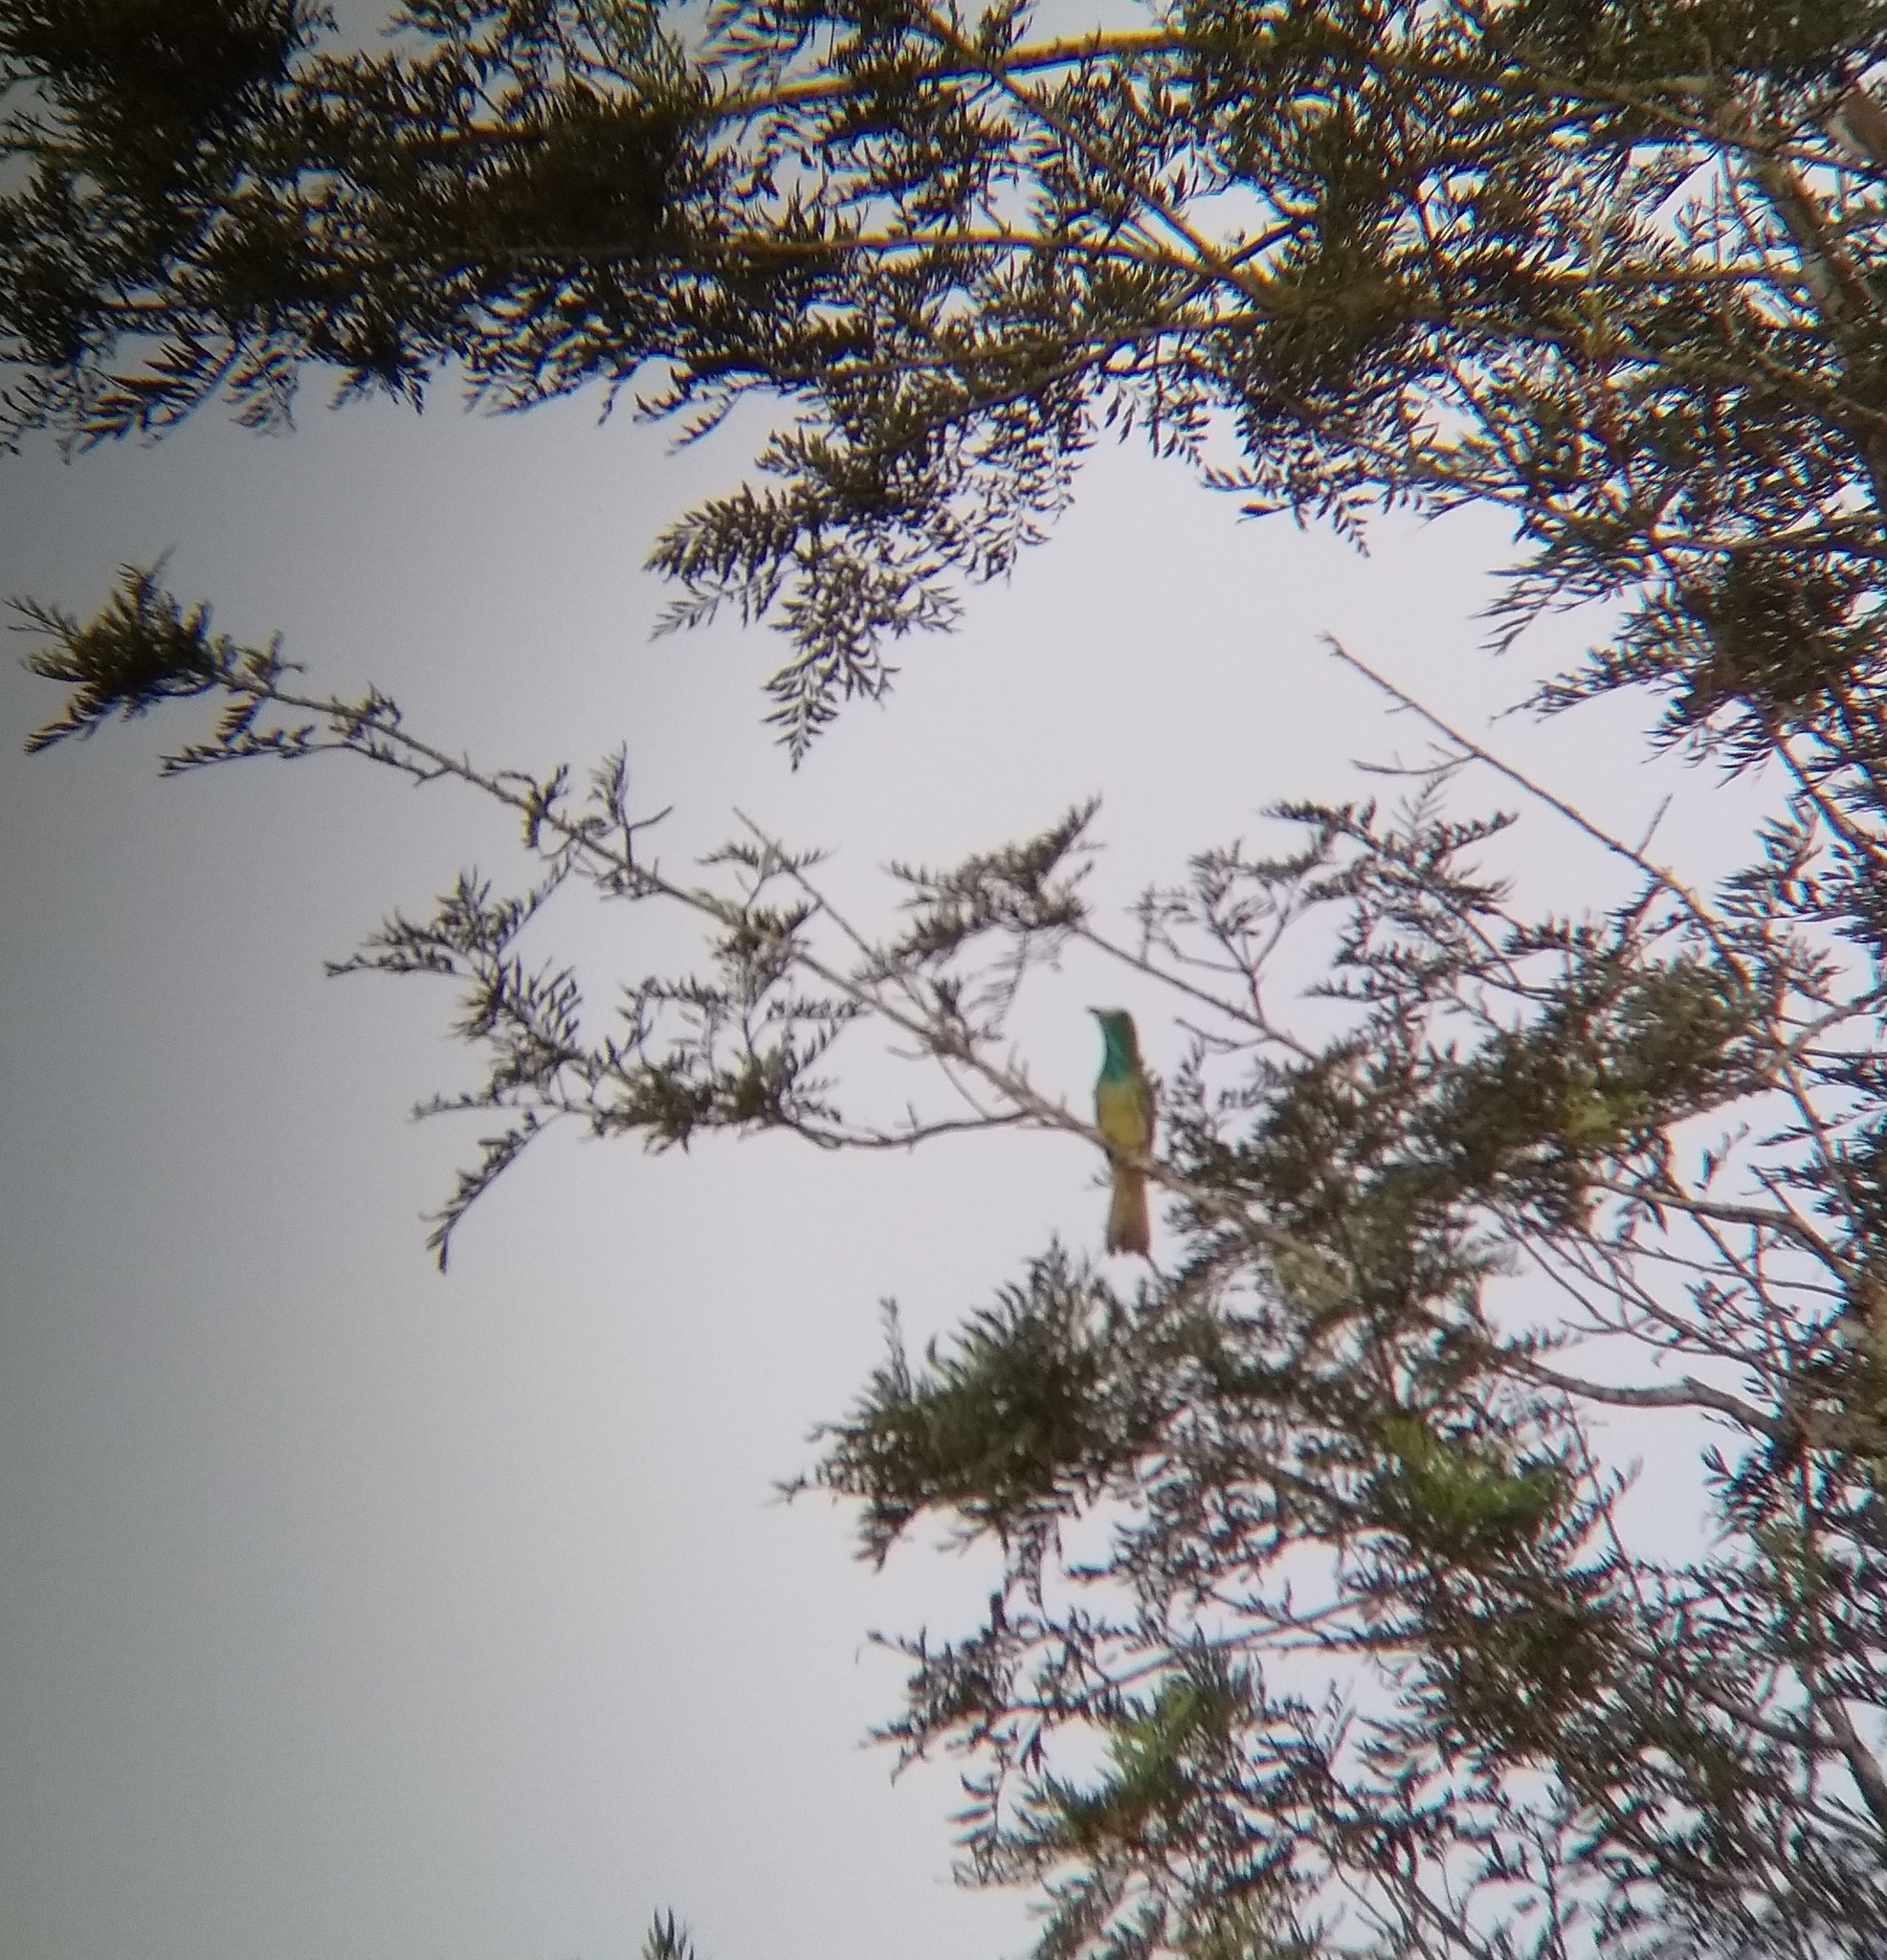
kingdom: Animalia
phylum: Chordata
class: Aves
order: Coraciiformes
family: Meropidae
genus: Nyctyornis
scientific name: Nyctyornis athertoni
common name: Blue-bearded bee-eater
